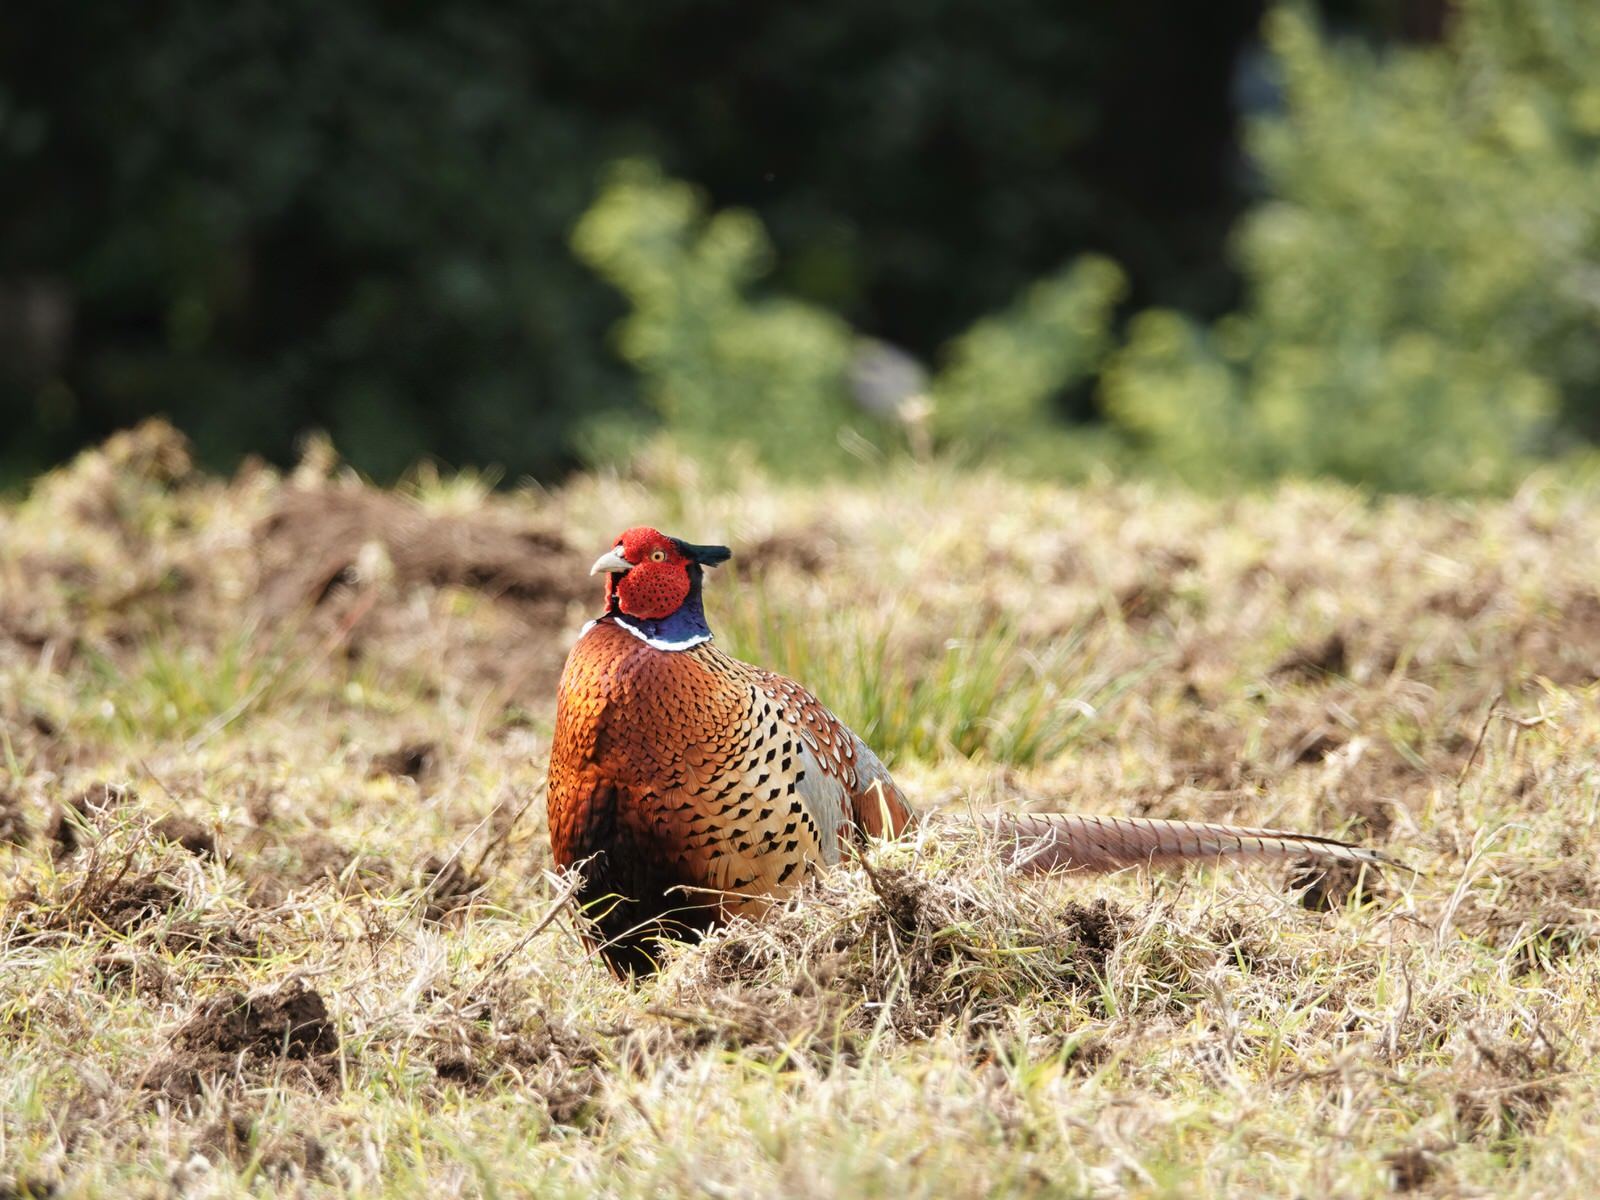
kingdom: Animalia
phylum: Chordata
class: Aves
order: Galliformes
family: Phasianidae
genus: Phasianus
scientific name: Phasianus colchicus
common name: Common pheasant
